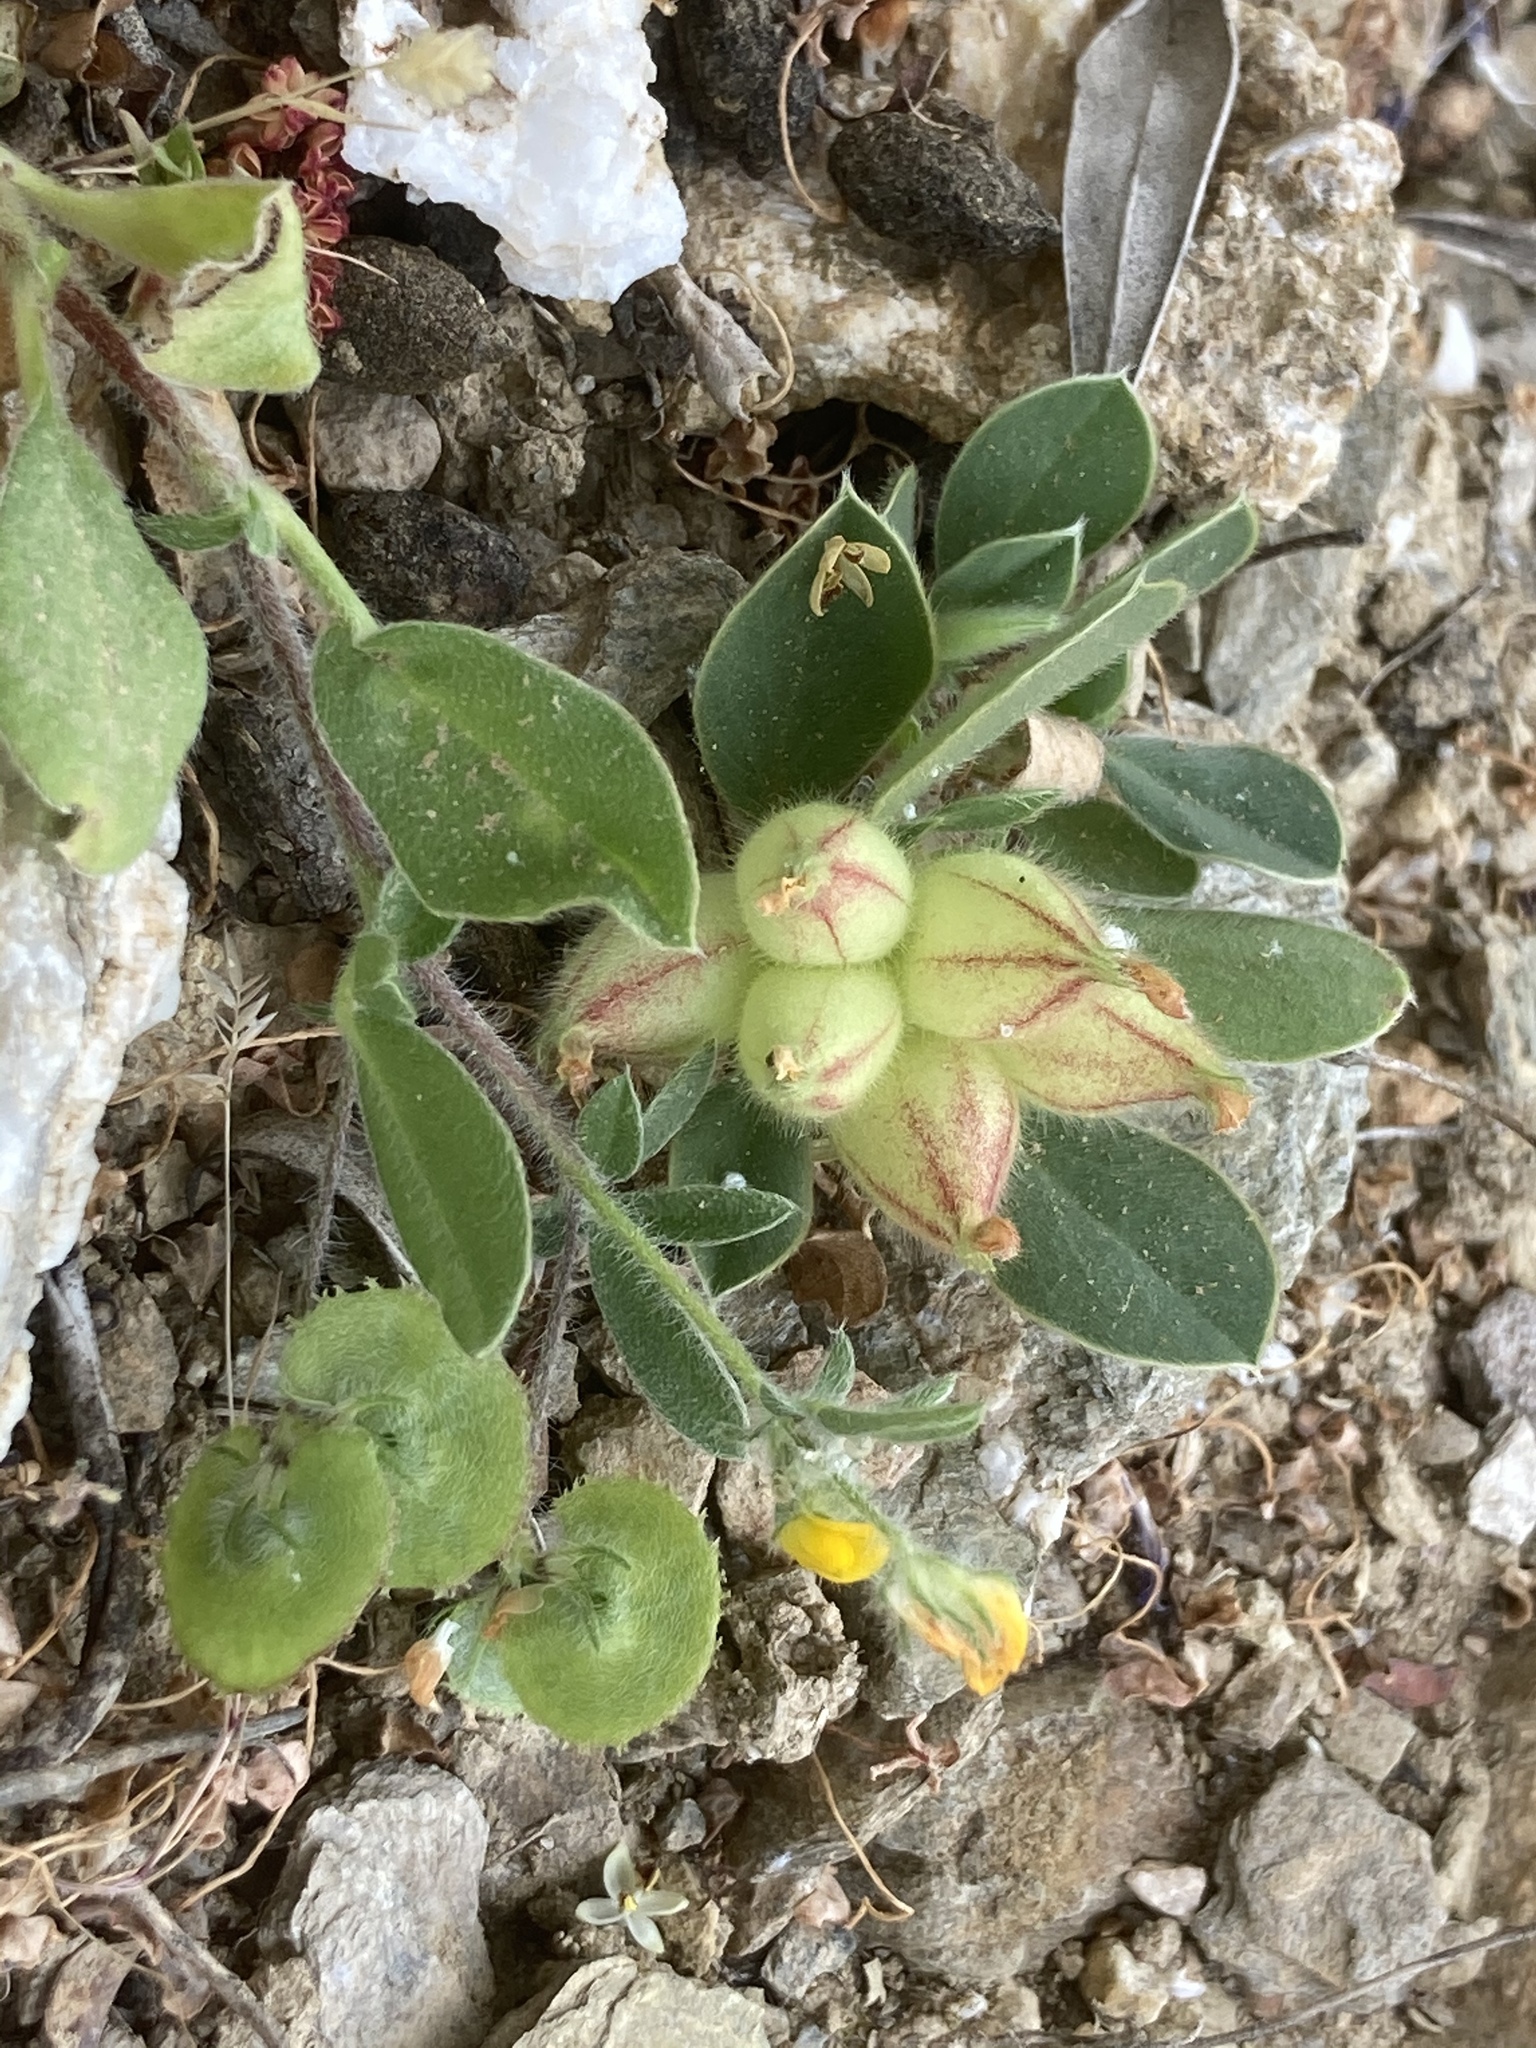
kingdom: Plantae
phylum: Tracheophyta
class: Magnoliopsida
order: Fabales
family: Fabaceae
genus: Anthyllis
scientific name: Anthyllis circinnata
